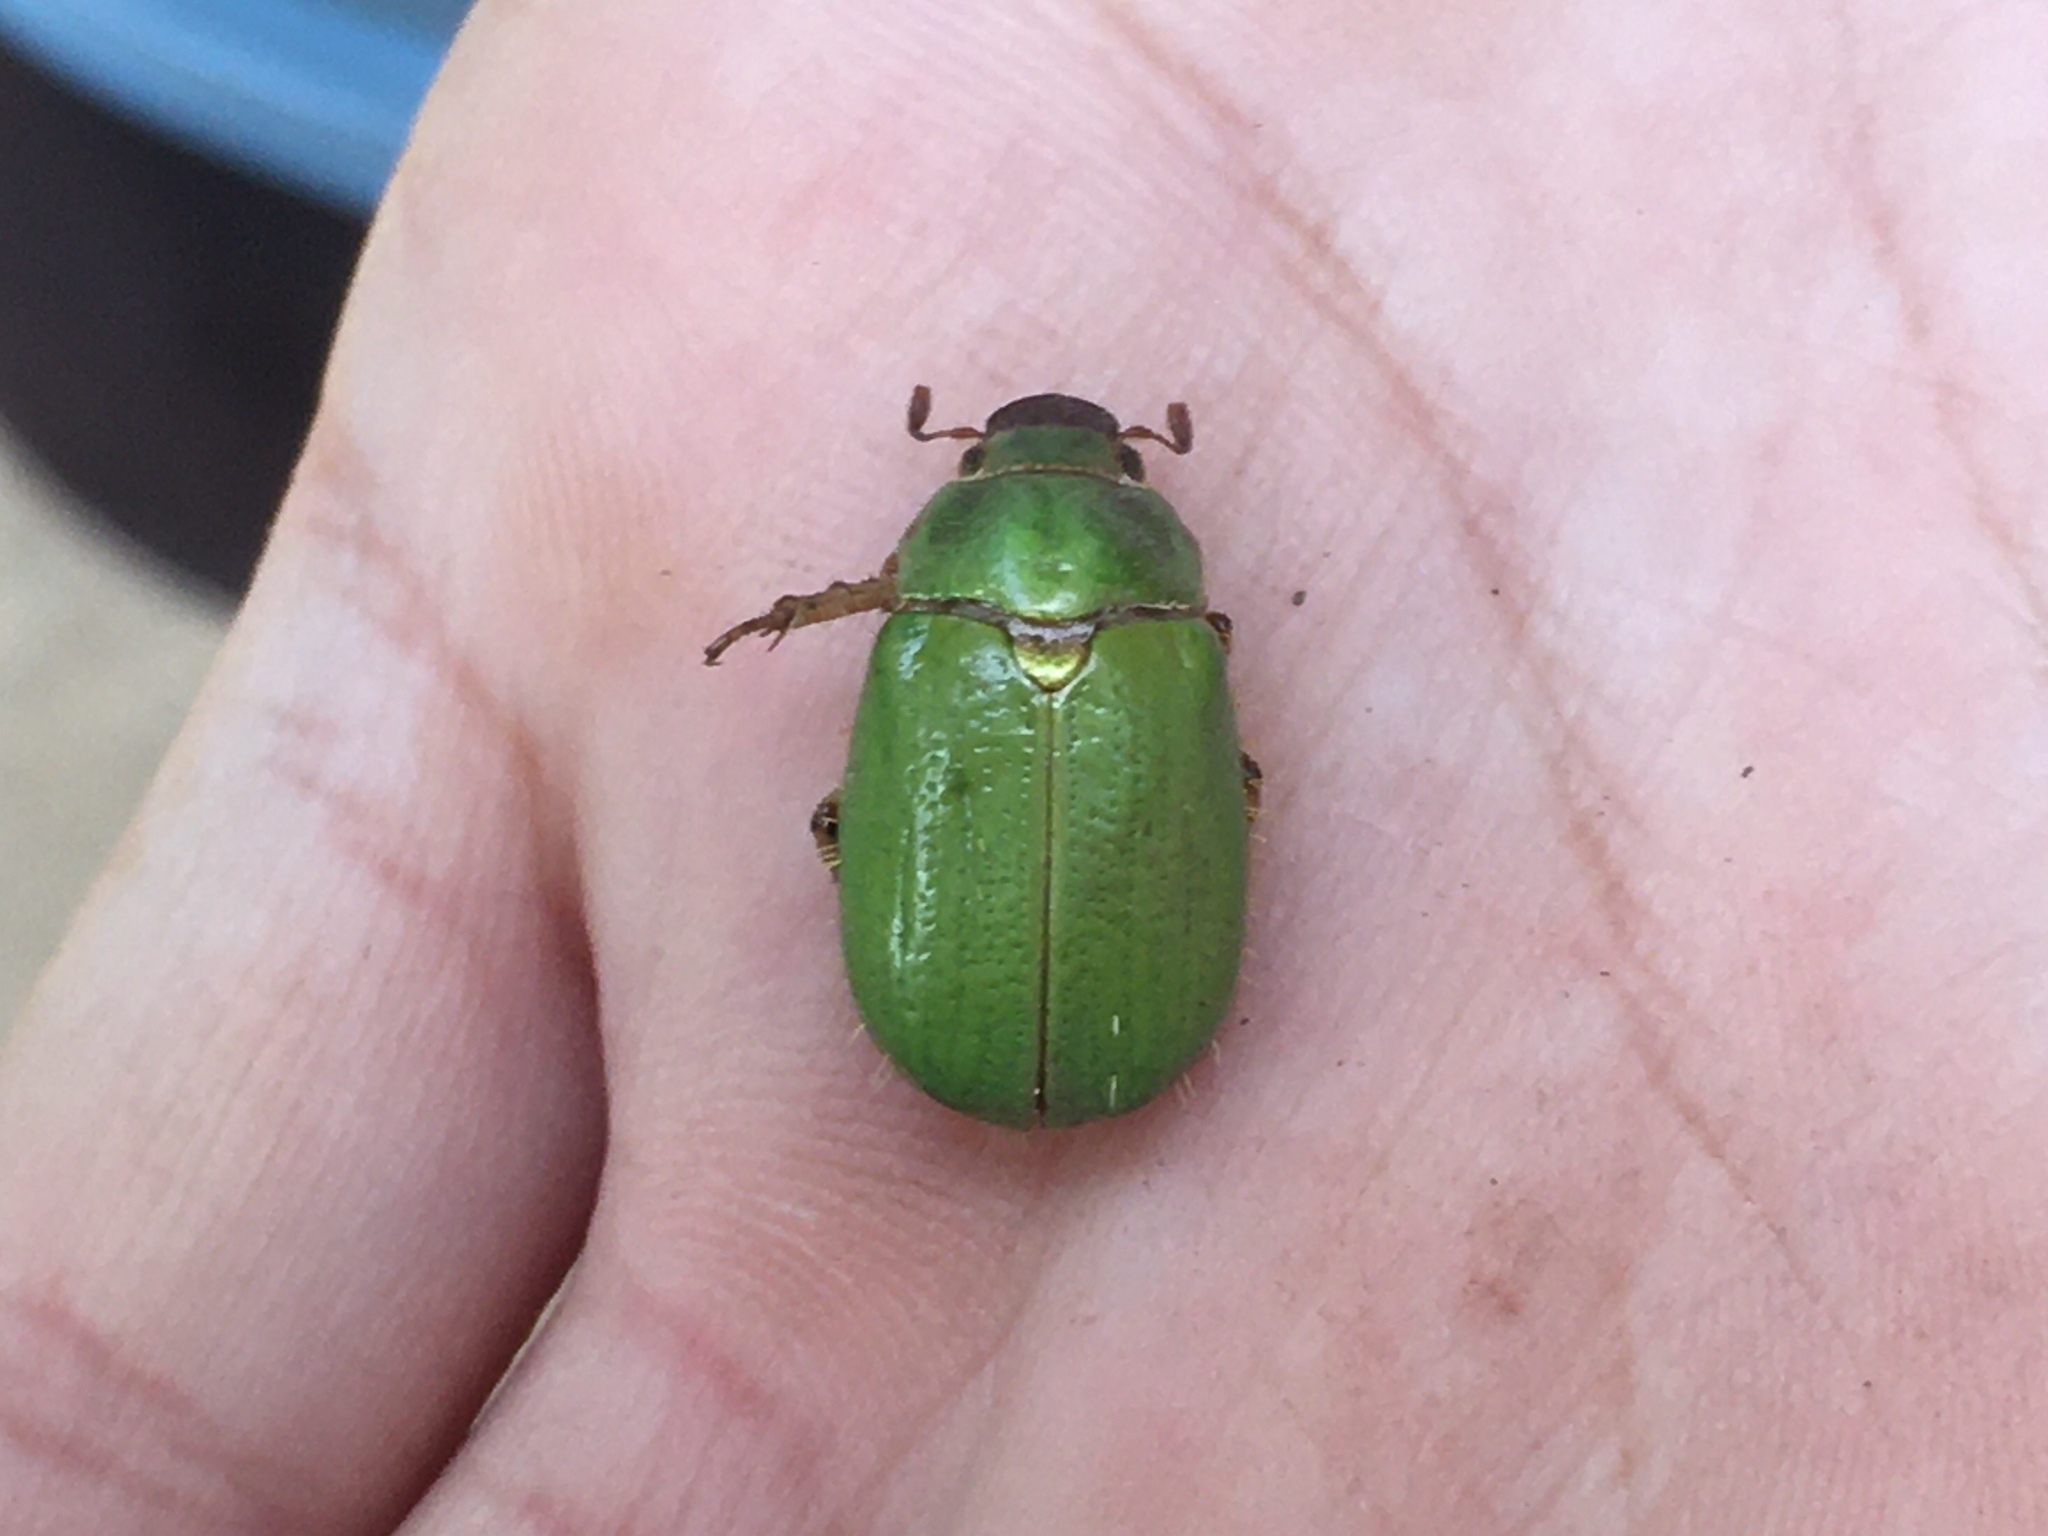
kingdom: Animalia
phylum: Arthropoda
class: Insecta
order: Coleoptera
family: Scarabaeidae
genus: Brachysternus
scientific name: Brachysternus prasinus
